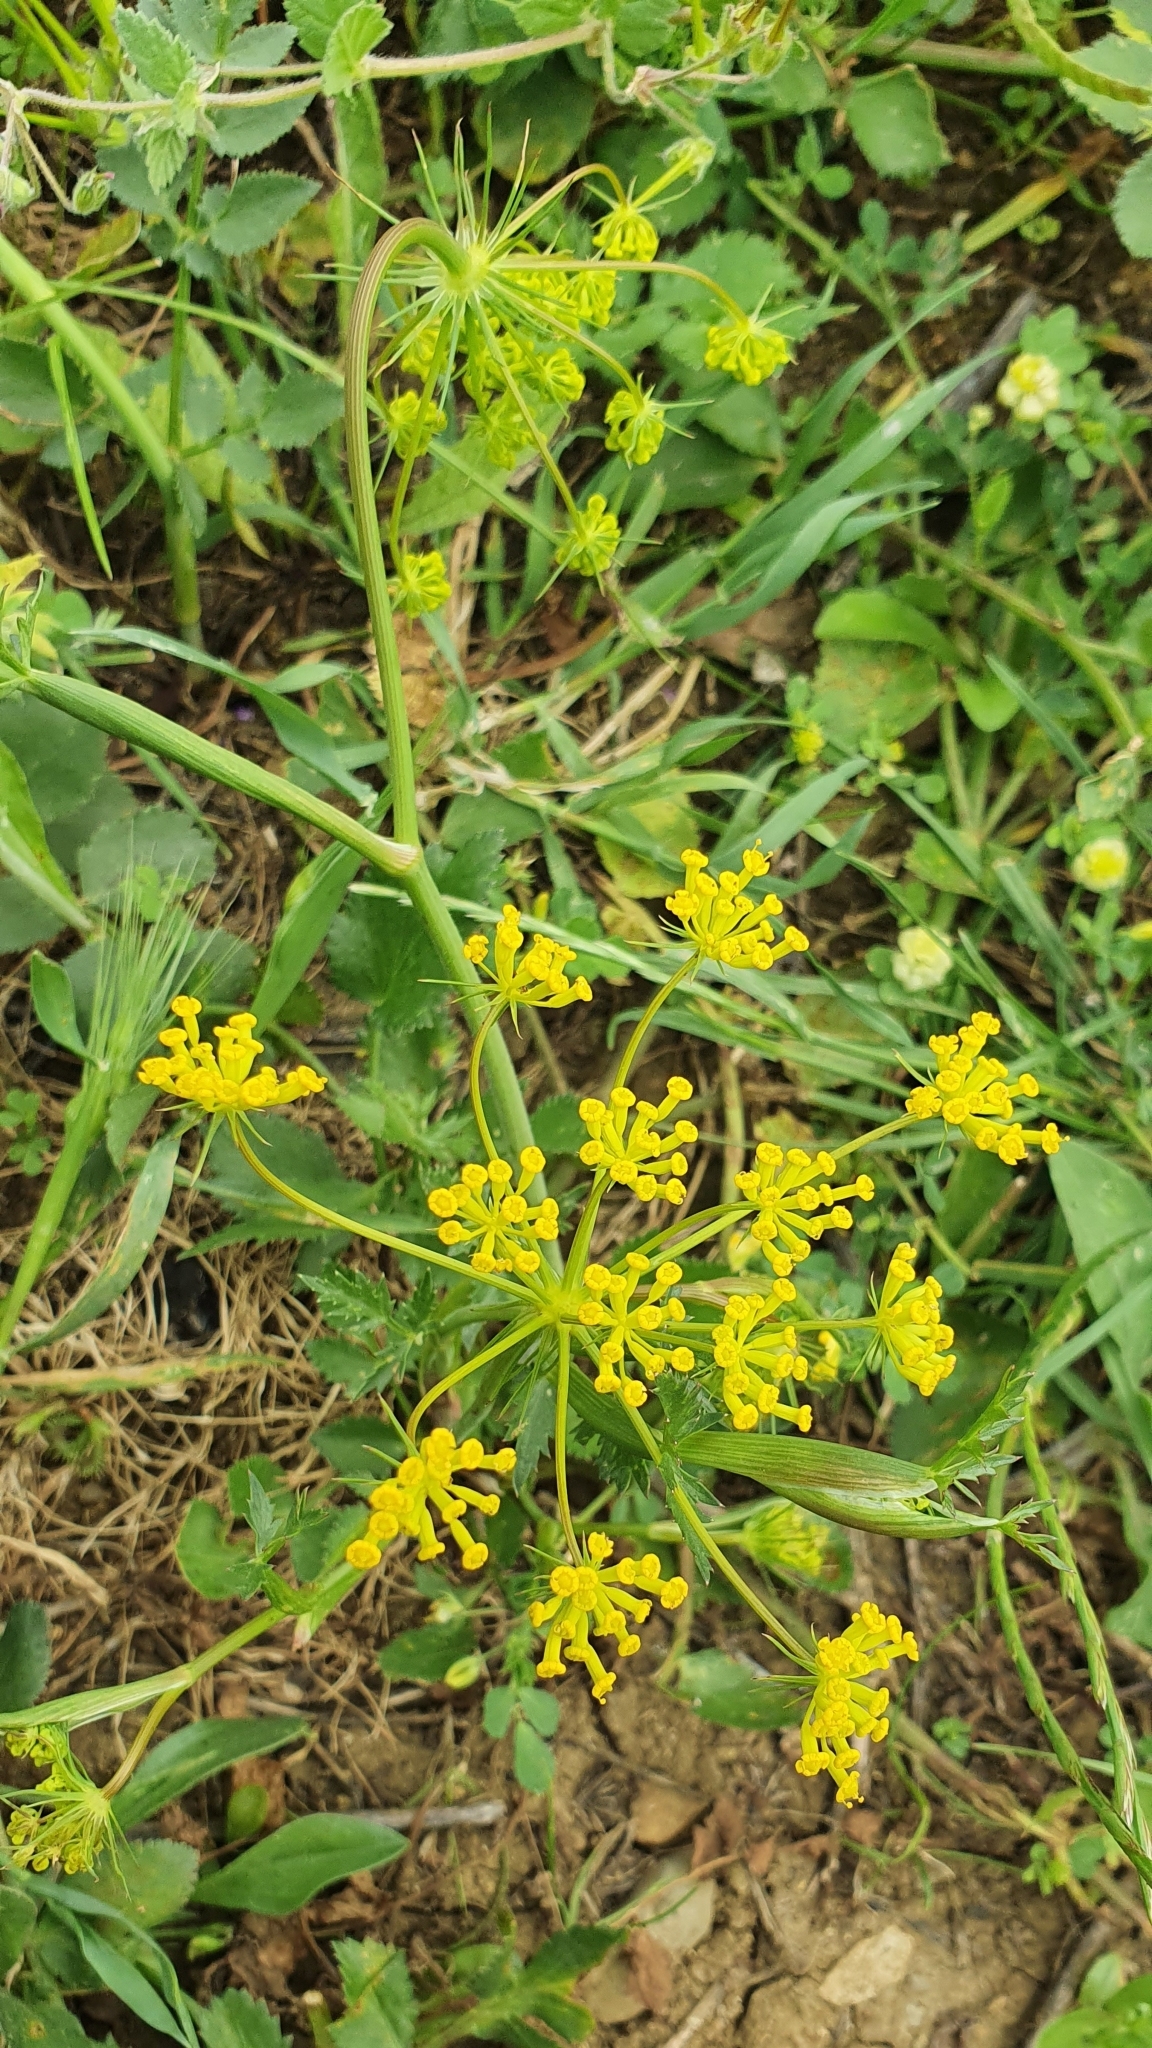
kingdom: Plantae
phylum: Tracheophyta
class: Magnoliopsida
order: Apiales
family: Apiaceae
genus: Kundmannia
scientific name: Kundmannia sicula
